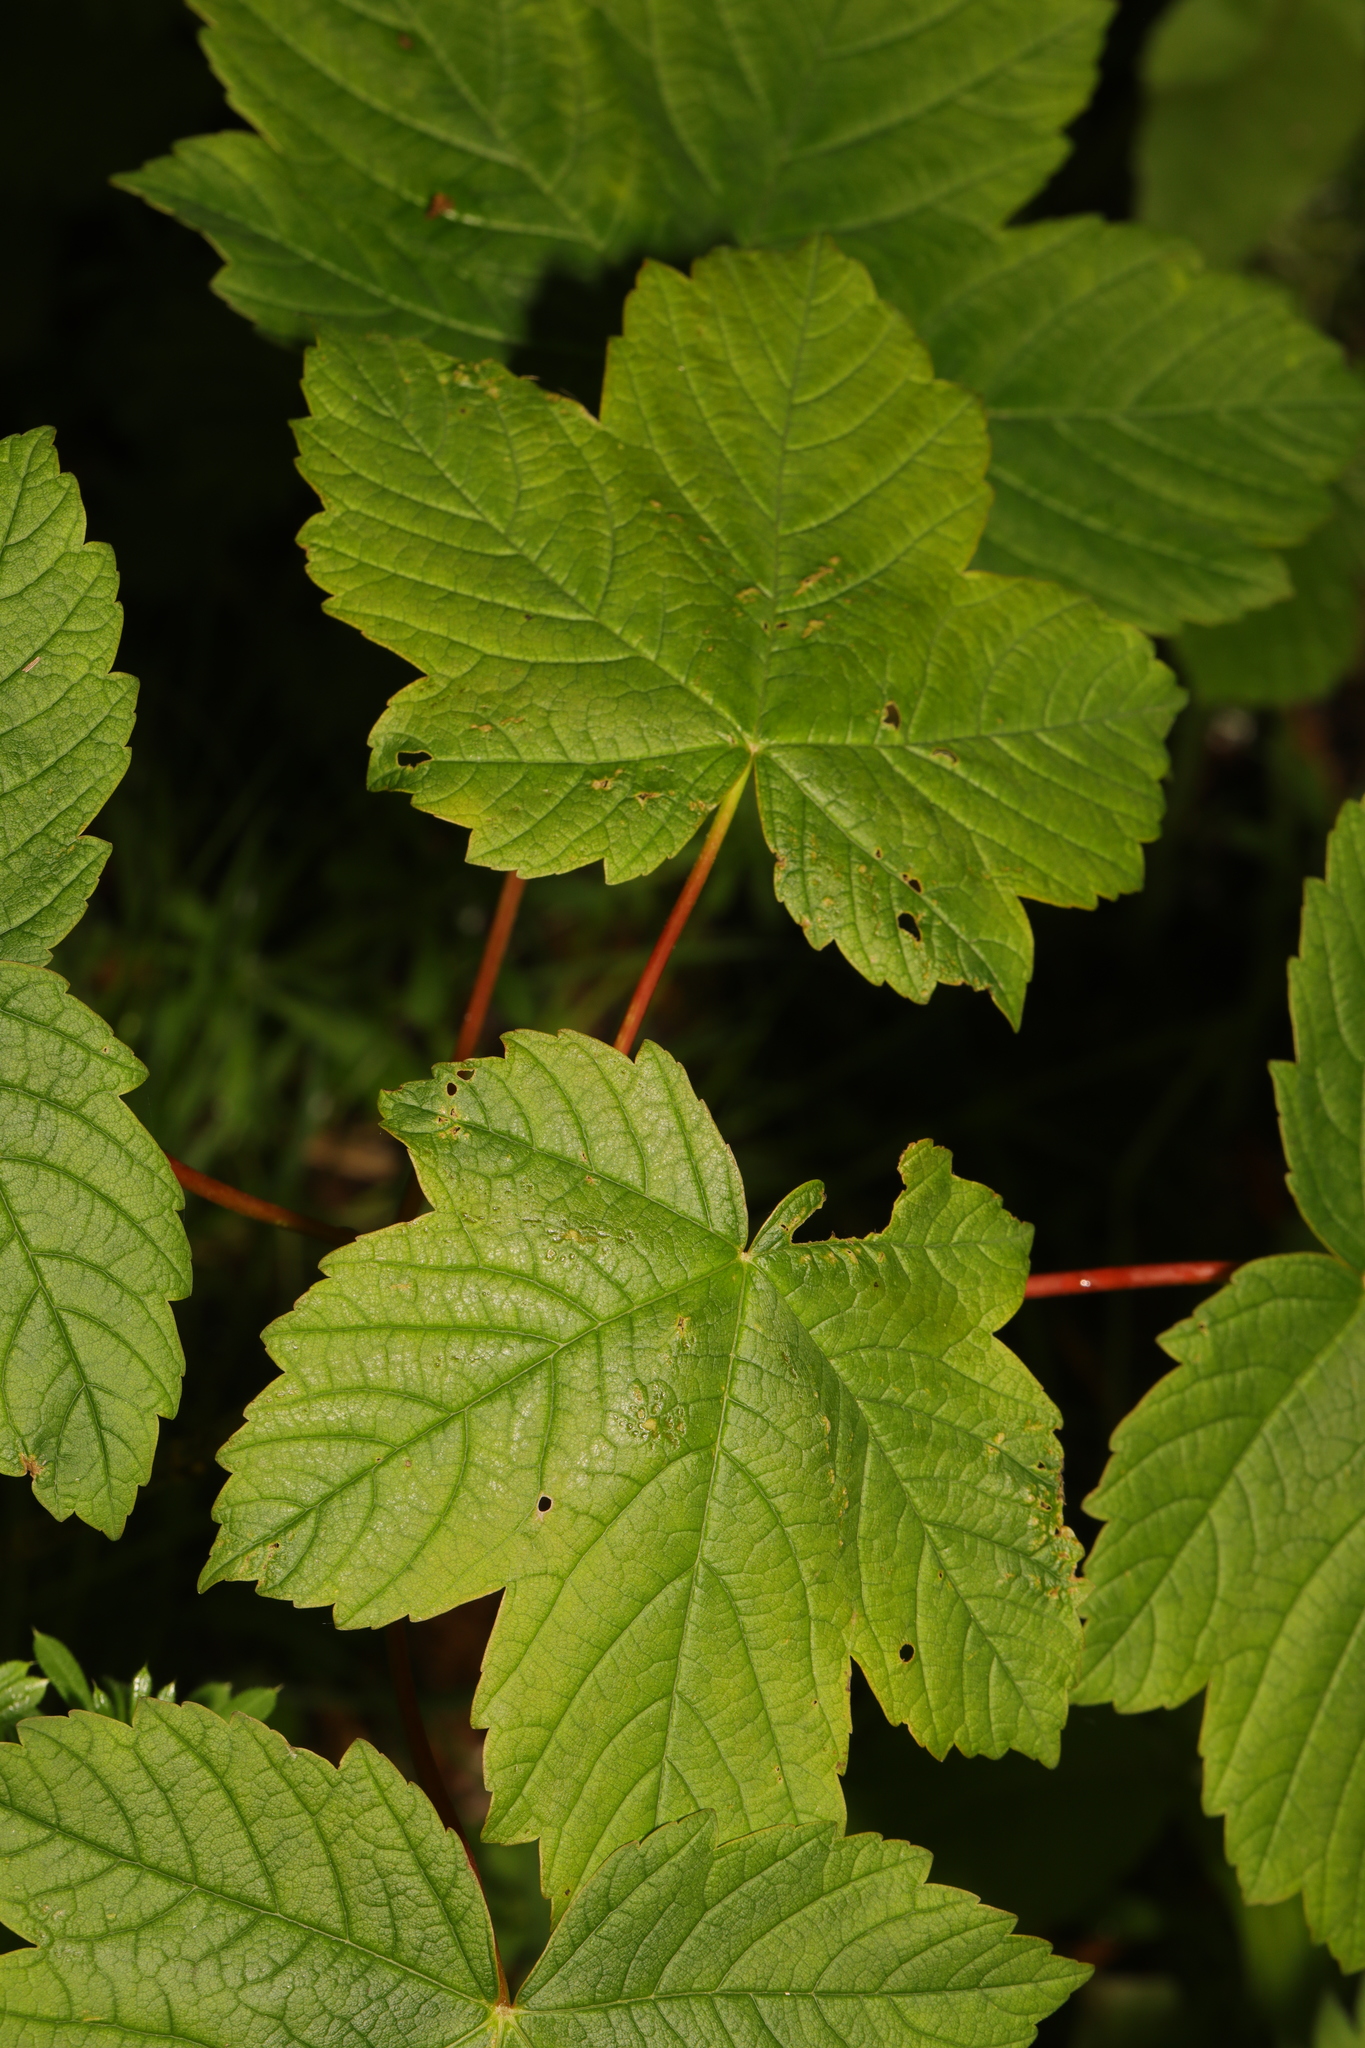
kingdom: Plantae
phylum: Tracheophyta
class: Magnoliopsida
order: Sapindales
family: Sapindaceae
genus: Acer
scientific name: Acer pseudoplatanus
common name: Sycamore
